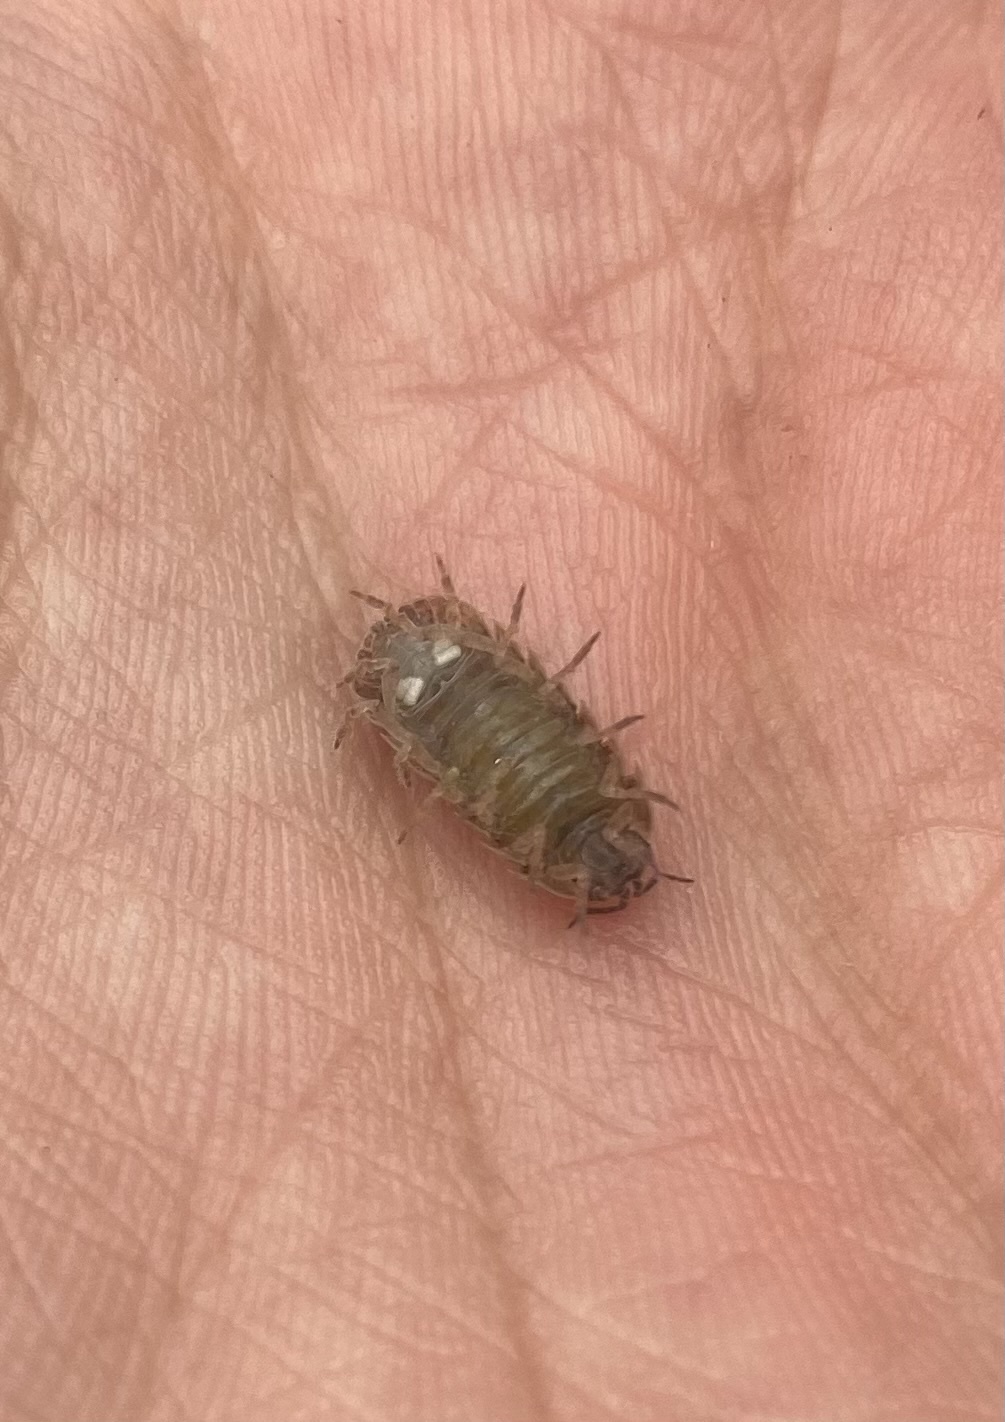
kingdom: Animalia
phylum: Arthropoda
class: Malacostraca
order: Isopoda
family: Armadillidiidae
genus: Armadillidium
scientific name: Armadillidium vulgare
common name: Common pill woodlouse
